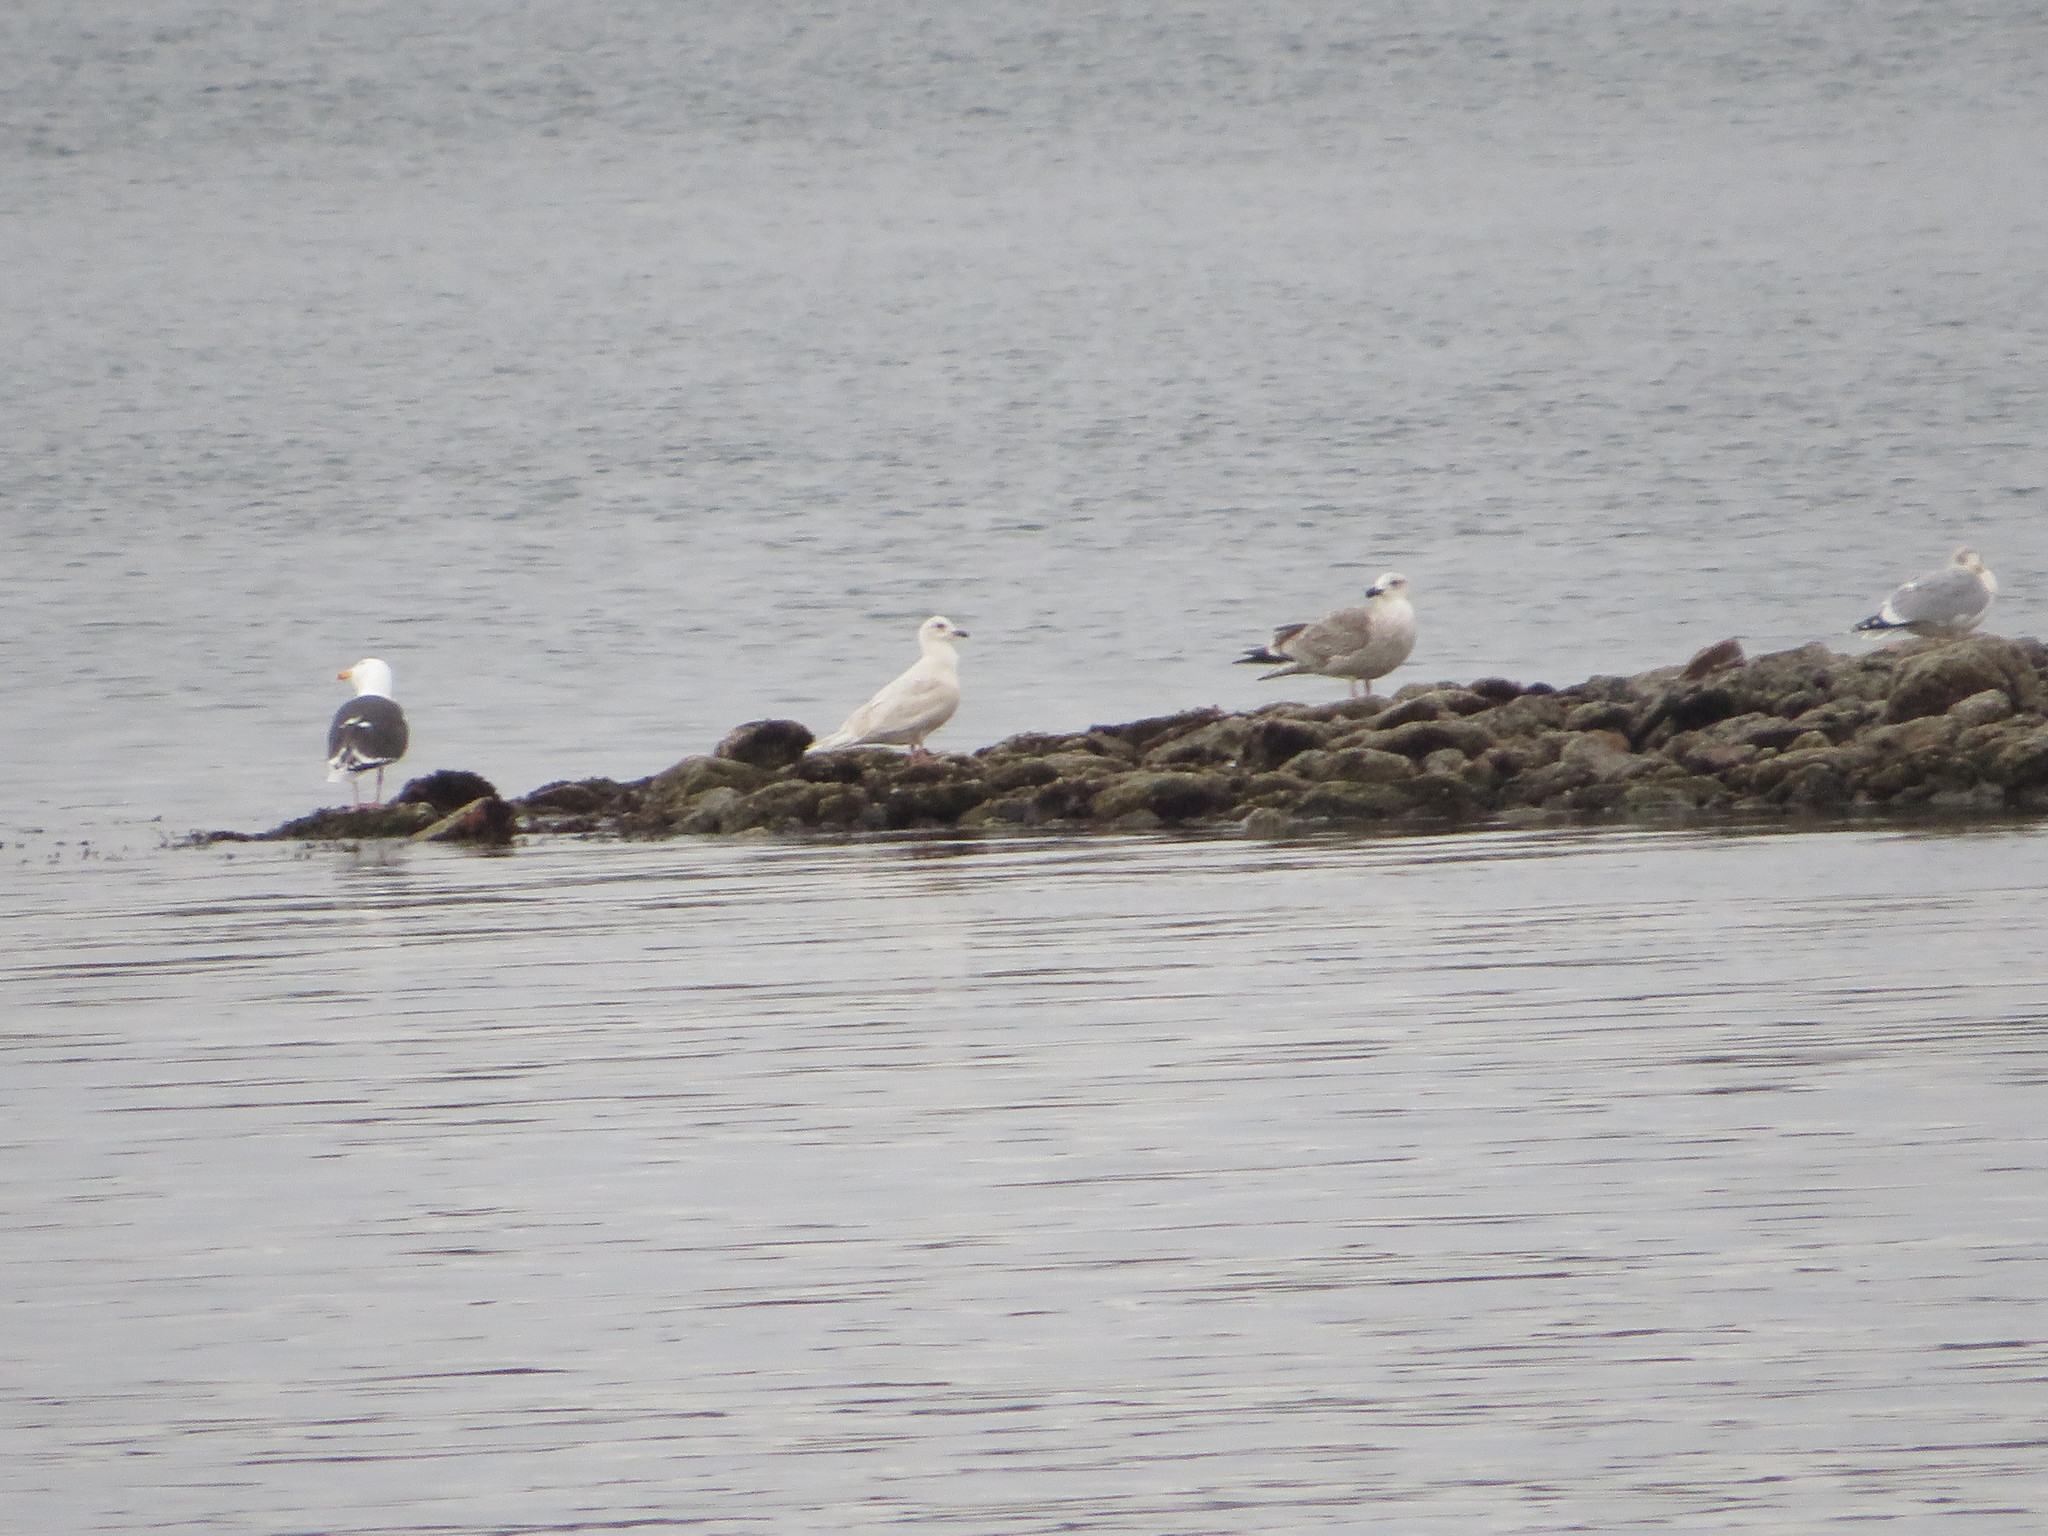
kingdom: Animalia
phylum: Chordata
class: Aves
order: Charadriiformes
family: Laridae
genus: Larus
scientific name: Larus glaucoides
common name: Iceland gull
